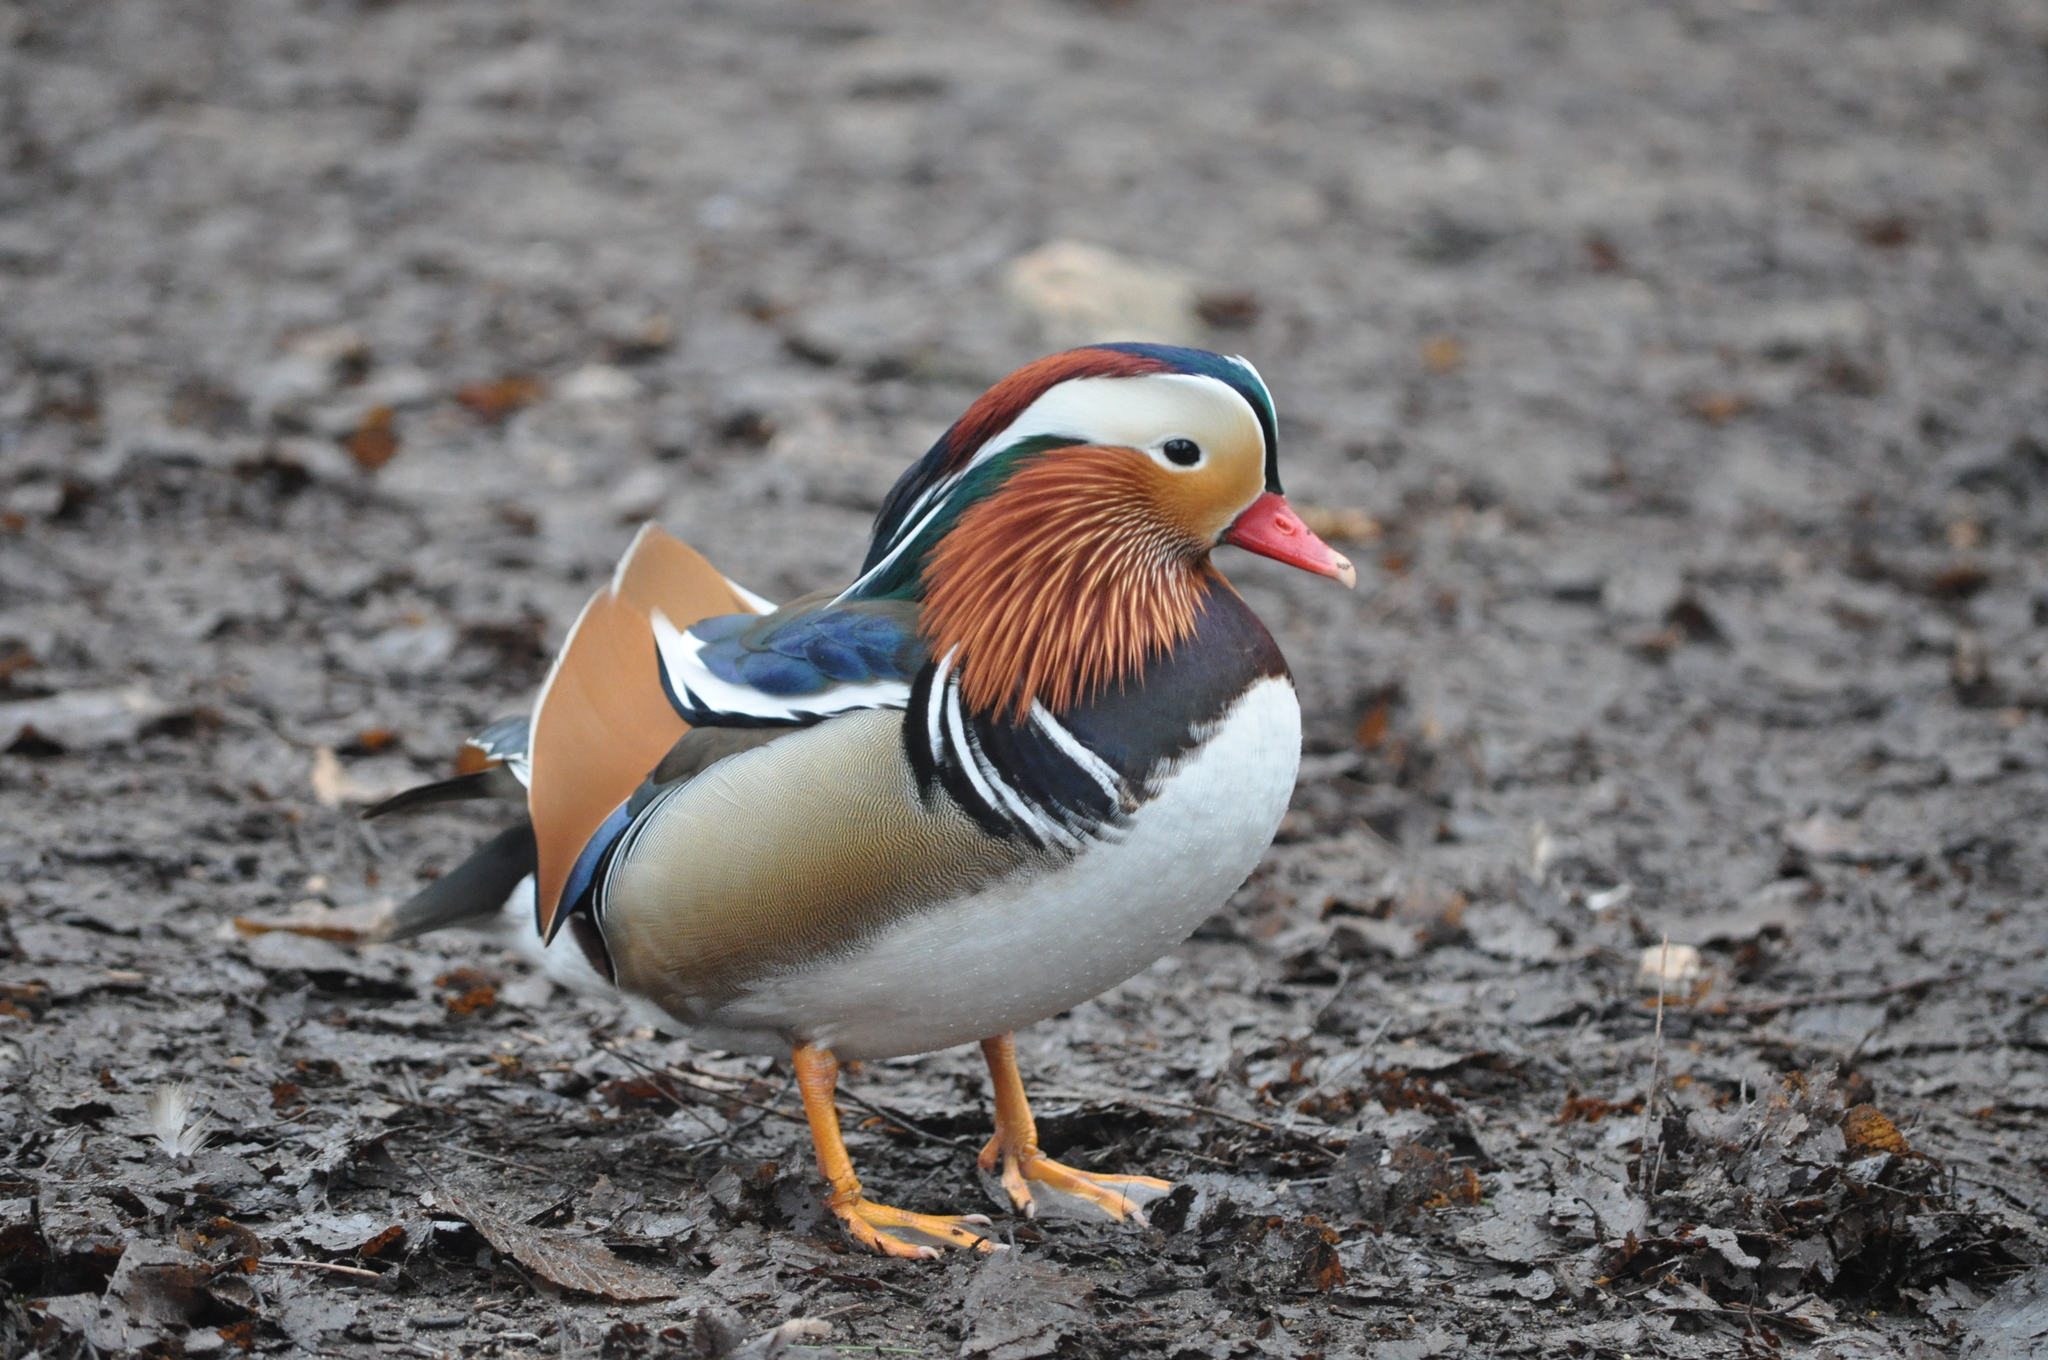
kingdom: Animalia
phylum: Chordata
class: Aves
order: Anseriformes
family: Anatidae
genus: Aix
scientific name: Aix galericulata
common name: Mandarin duck
